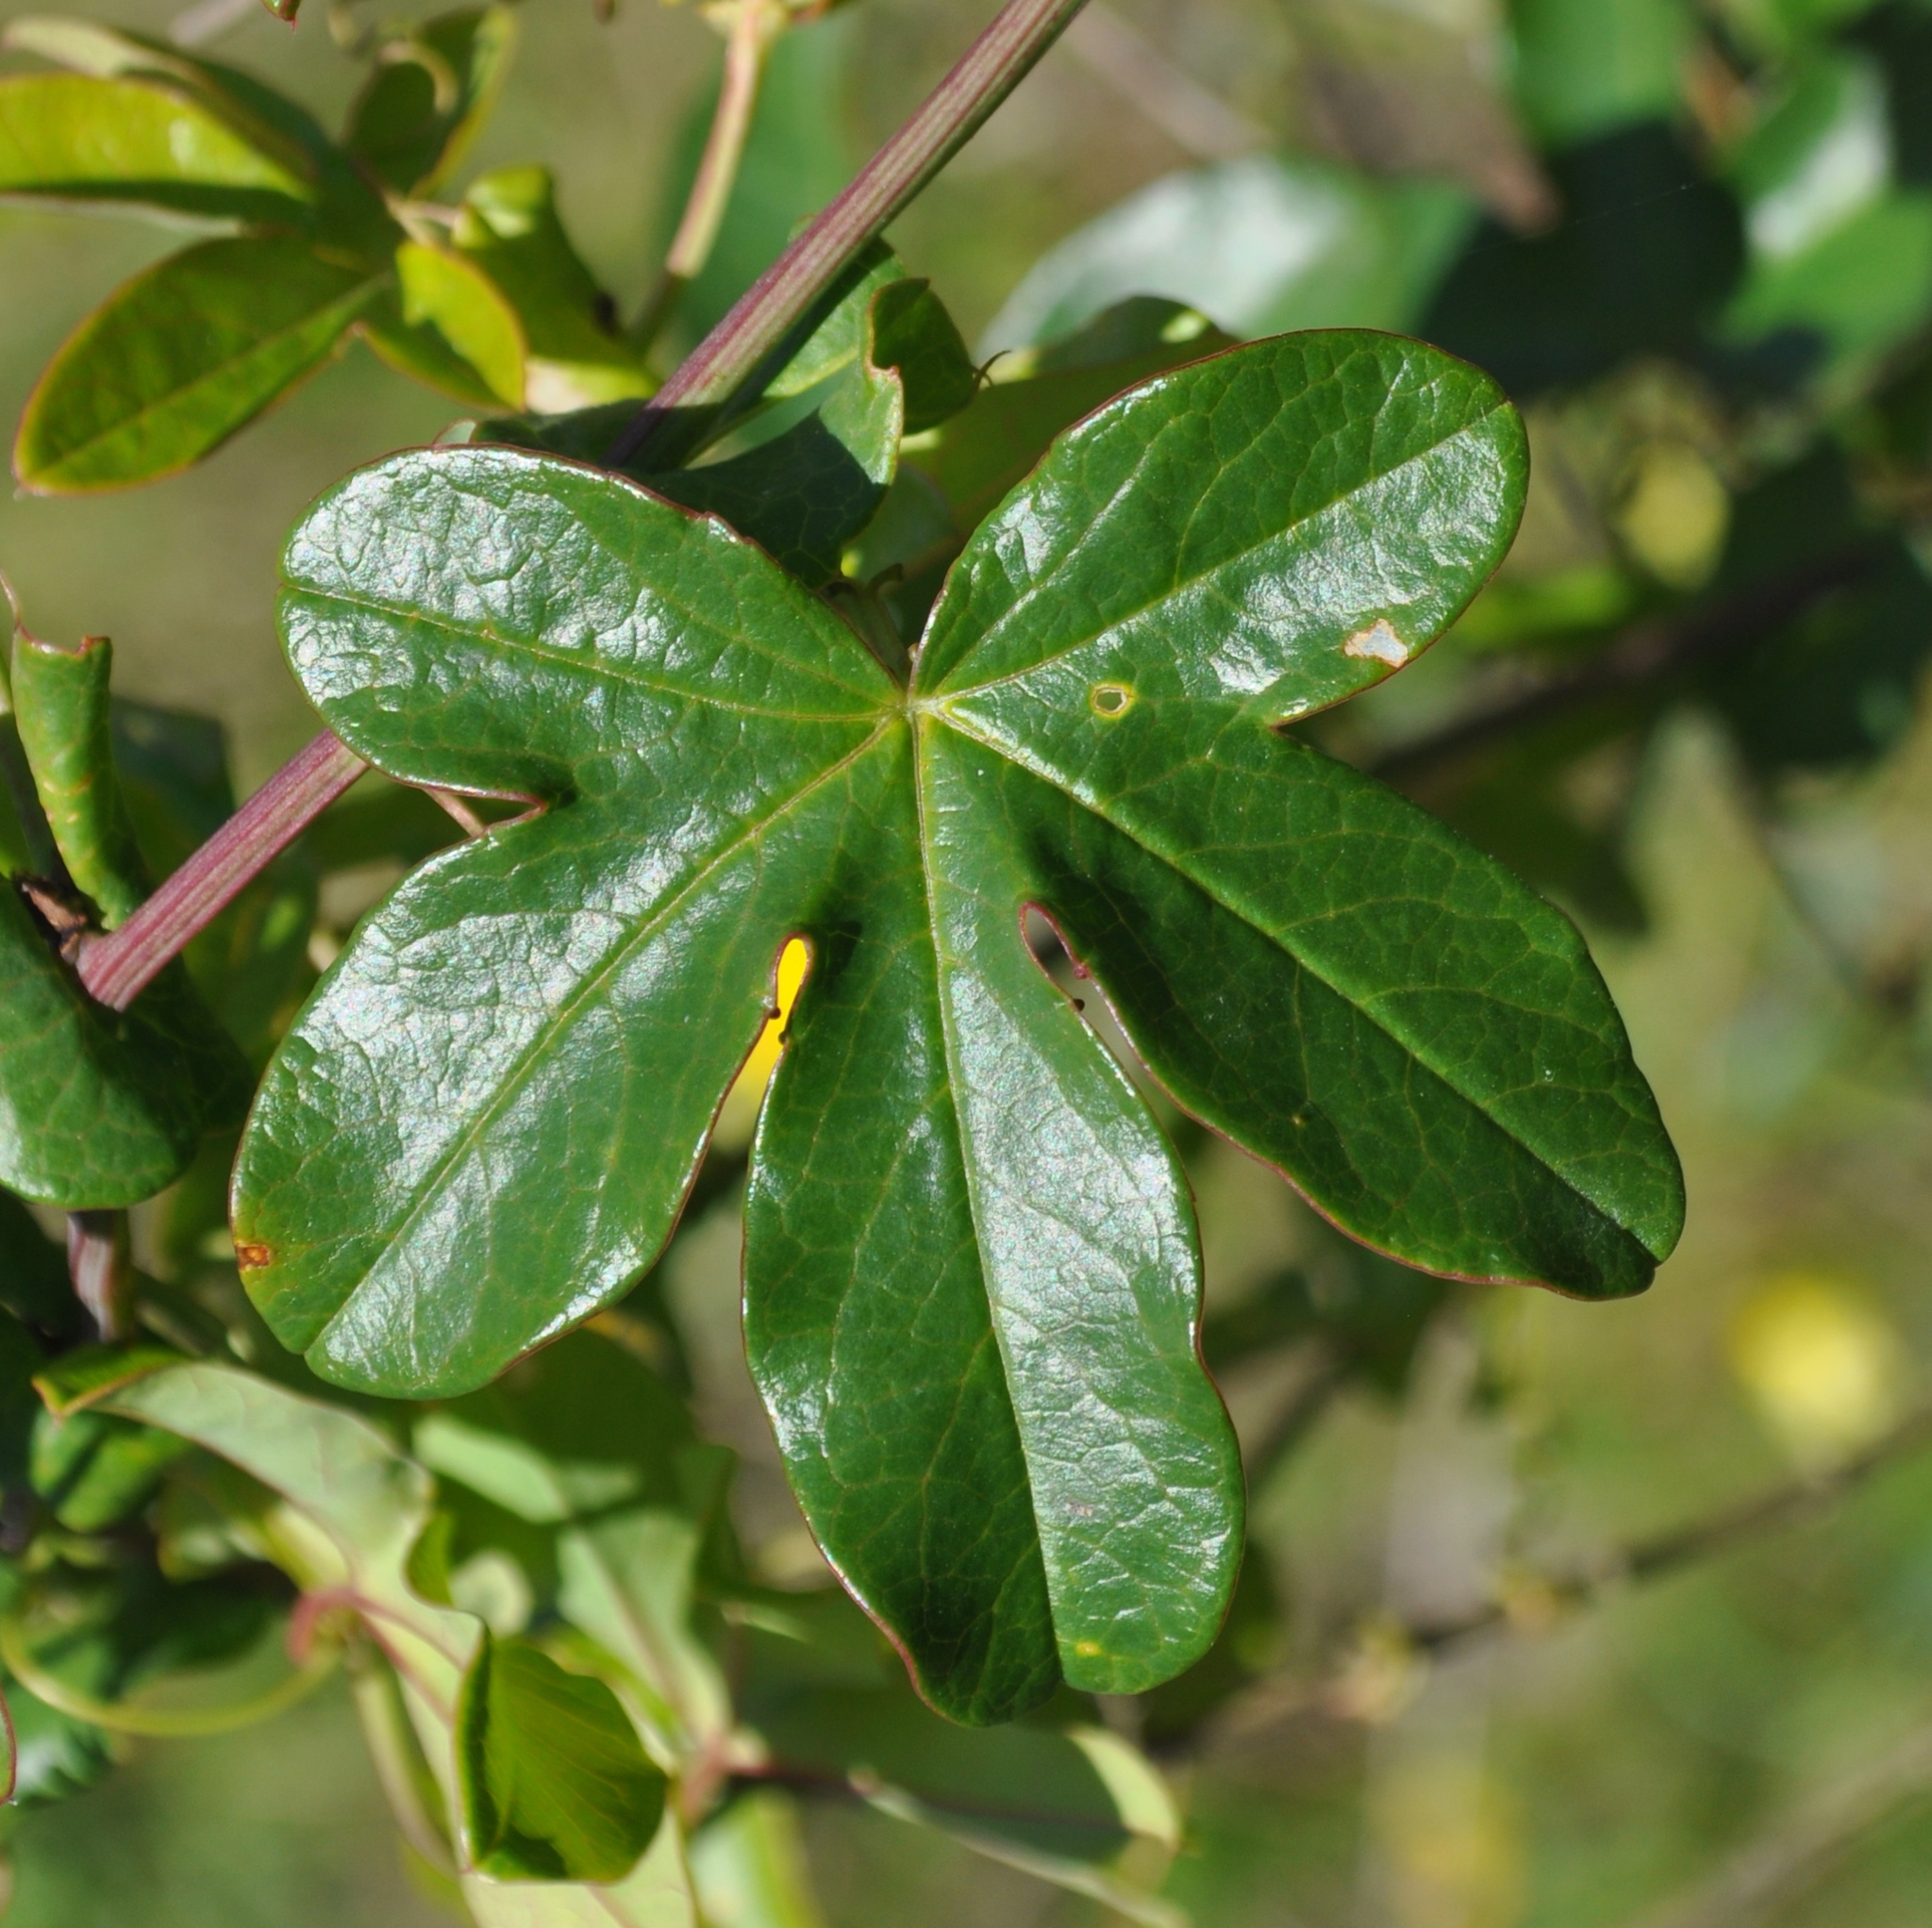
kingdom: Plantae
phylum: Tracheophyta
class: Magnoliopsida
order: Malpighiales
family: Passifloraceae
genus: Passiflora
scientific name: Passiflora caerulea
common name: Blue passionflower
